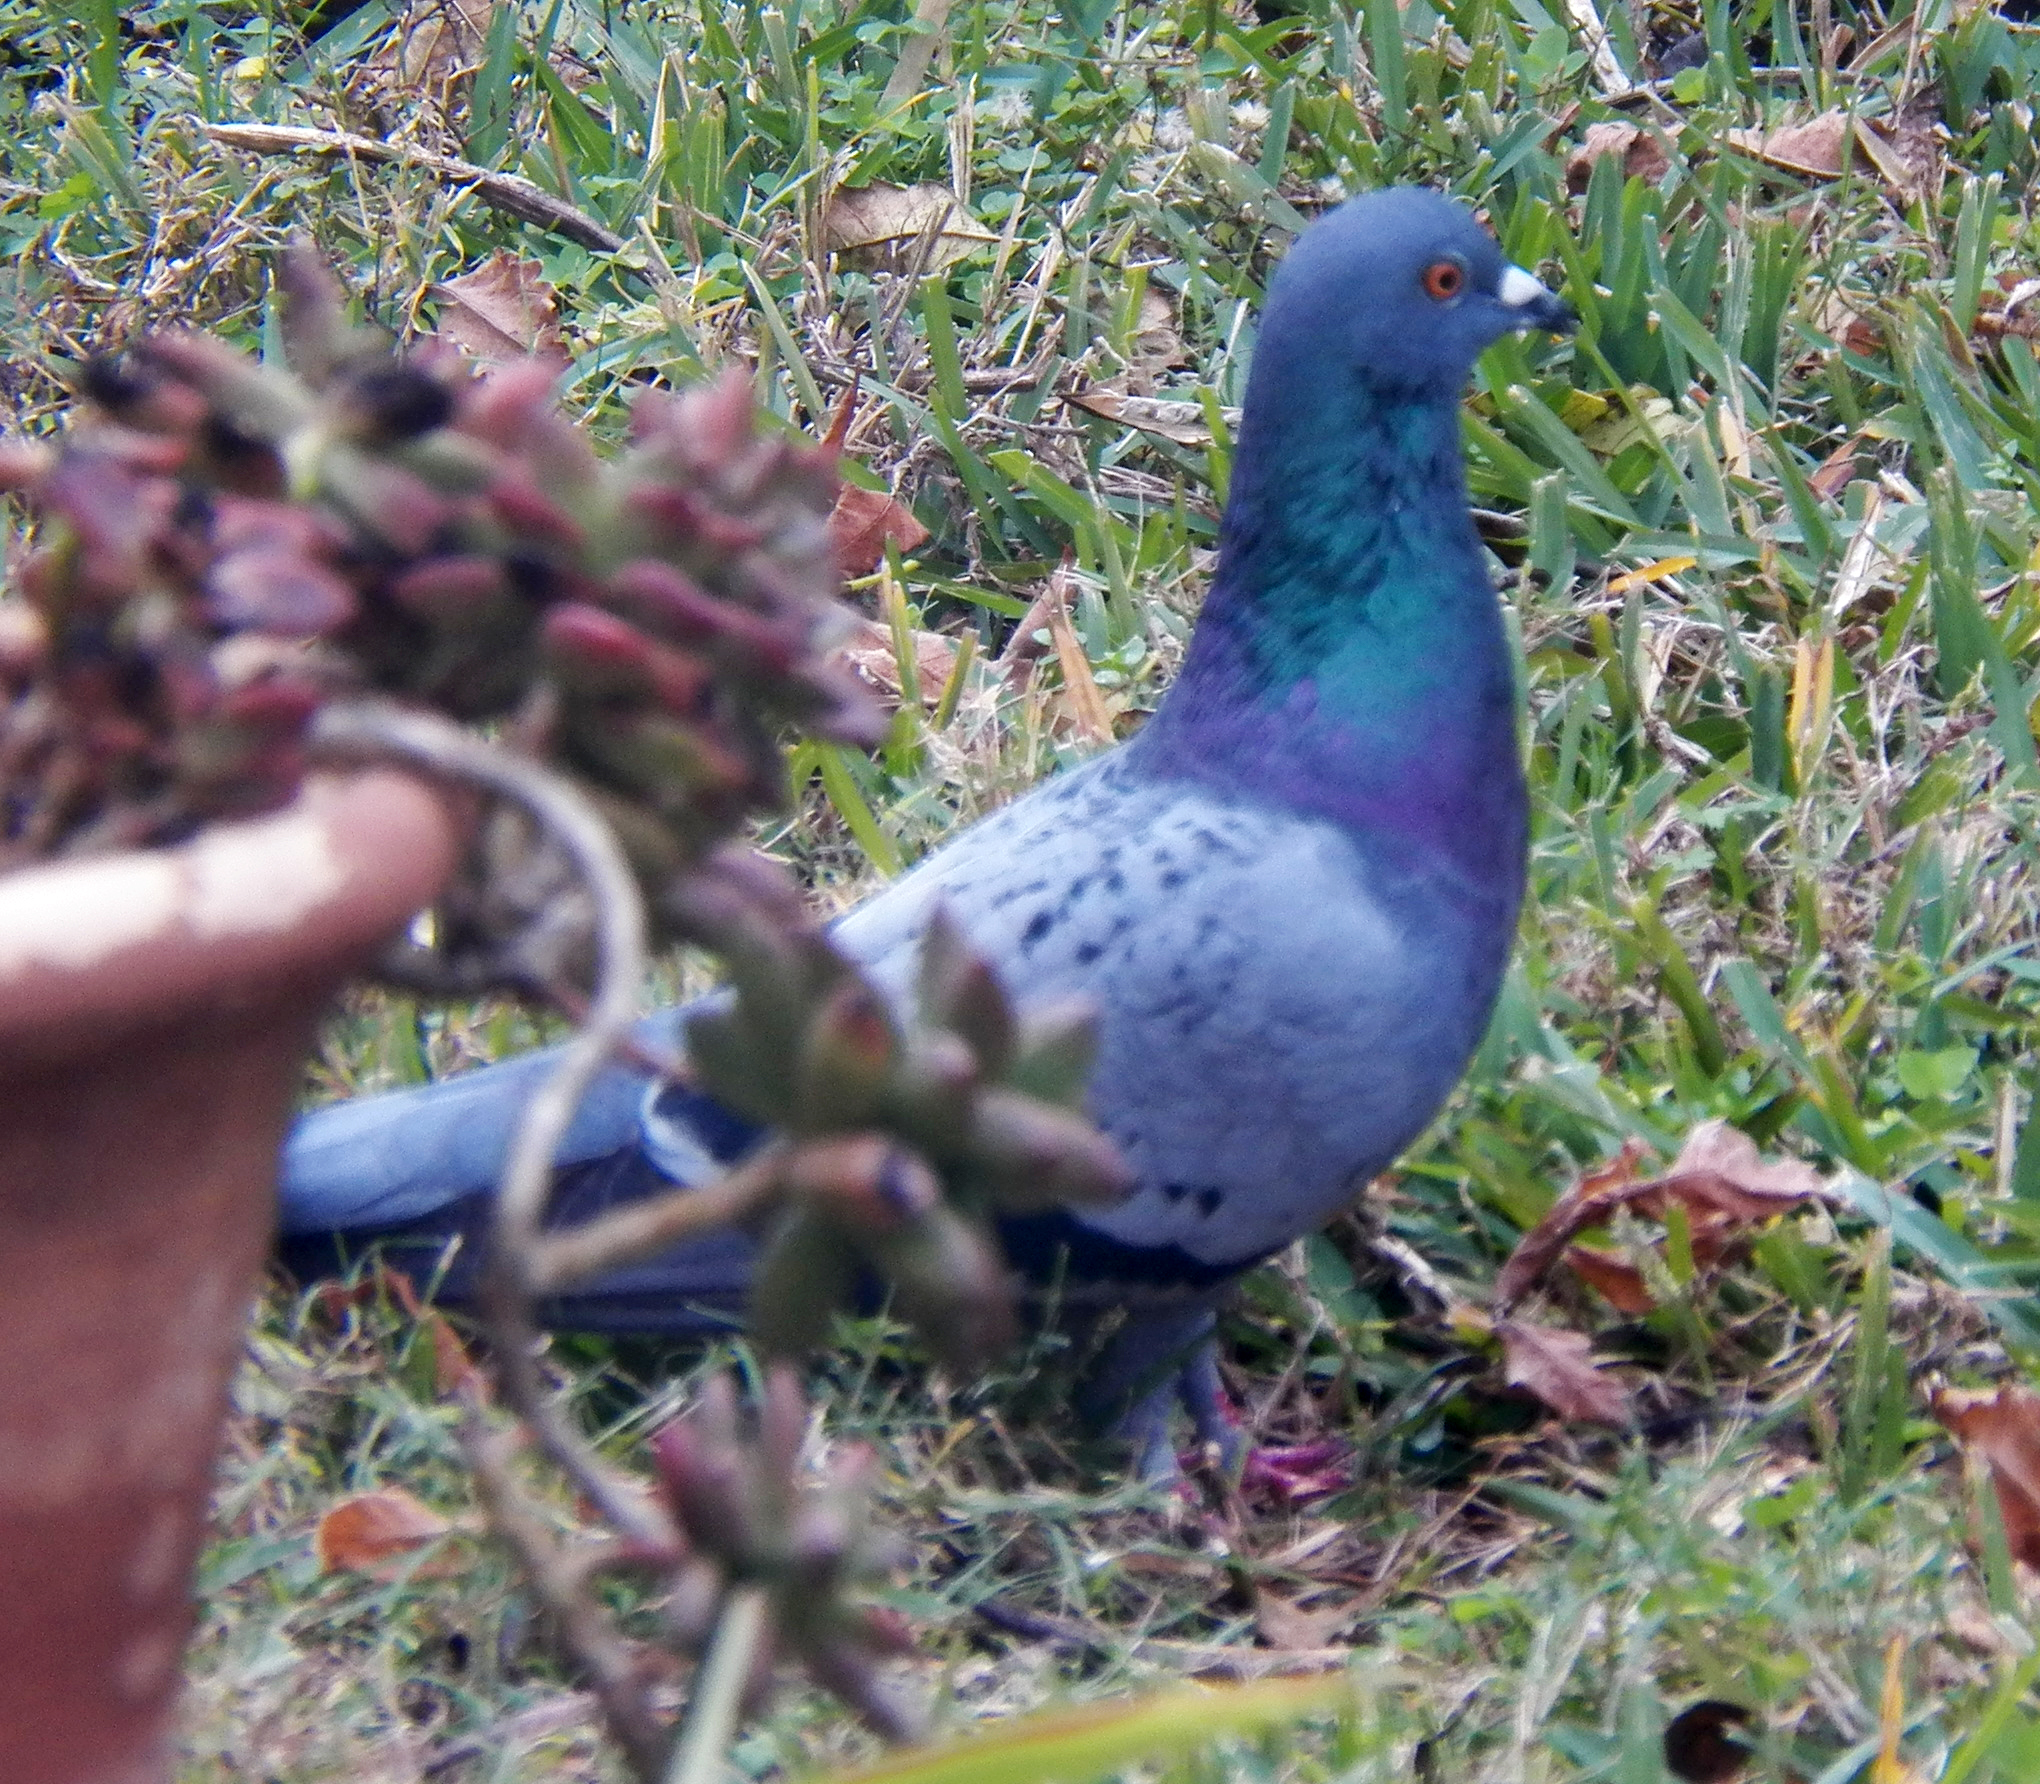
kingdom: Animalia
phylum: Chordata
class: Aves
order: Columbiformes
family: Columbidae
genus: Columba
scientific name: Columba livia
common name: Rock pigeon
